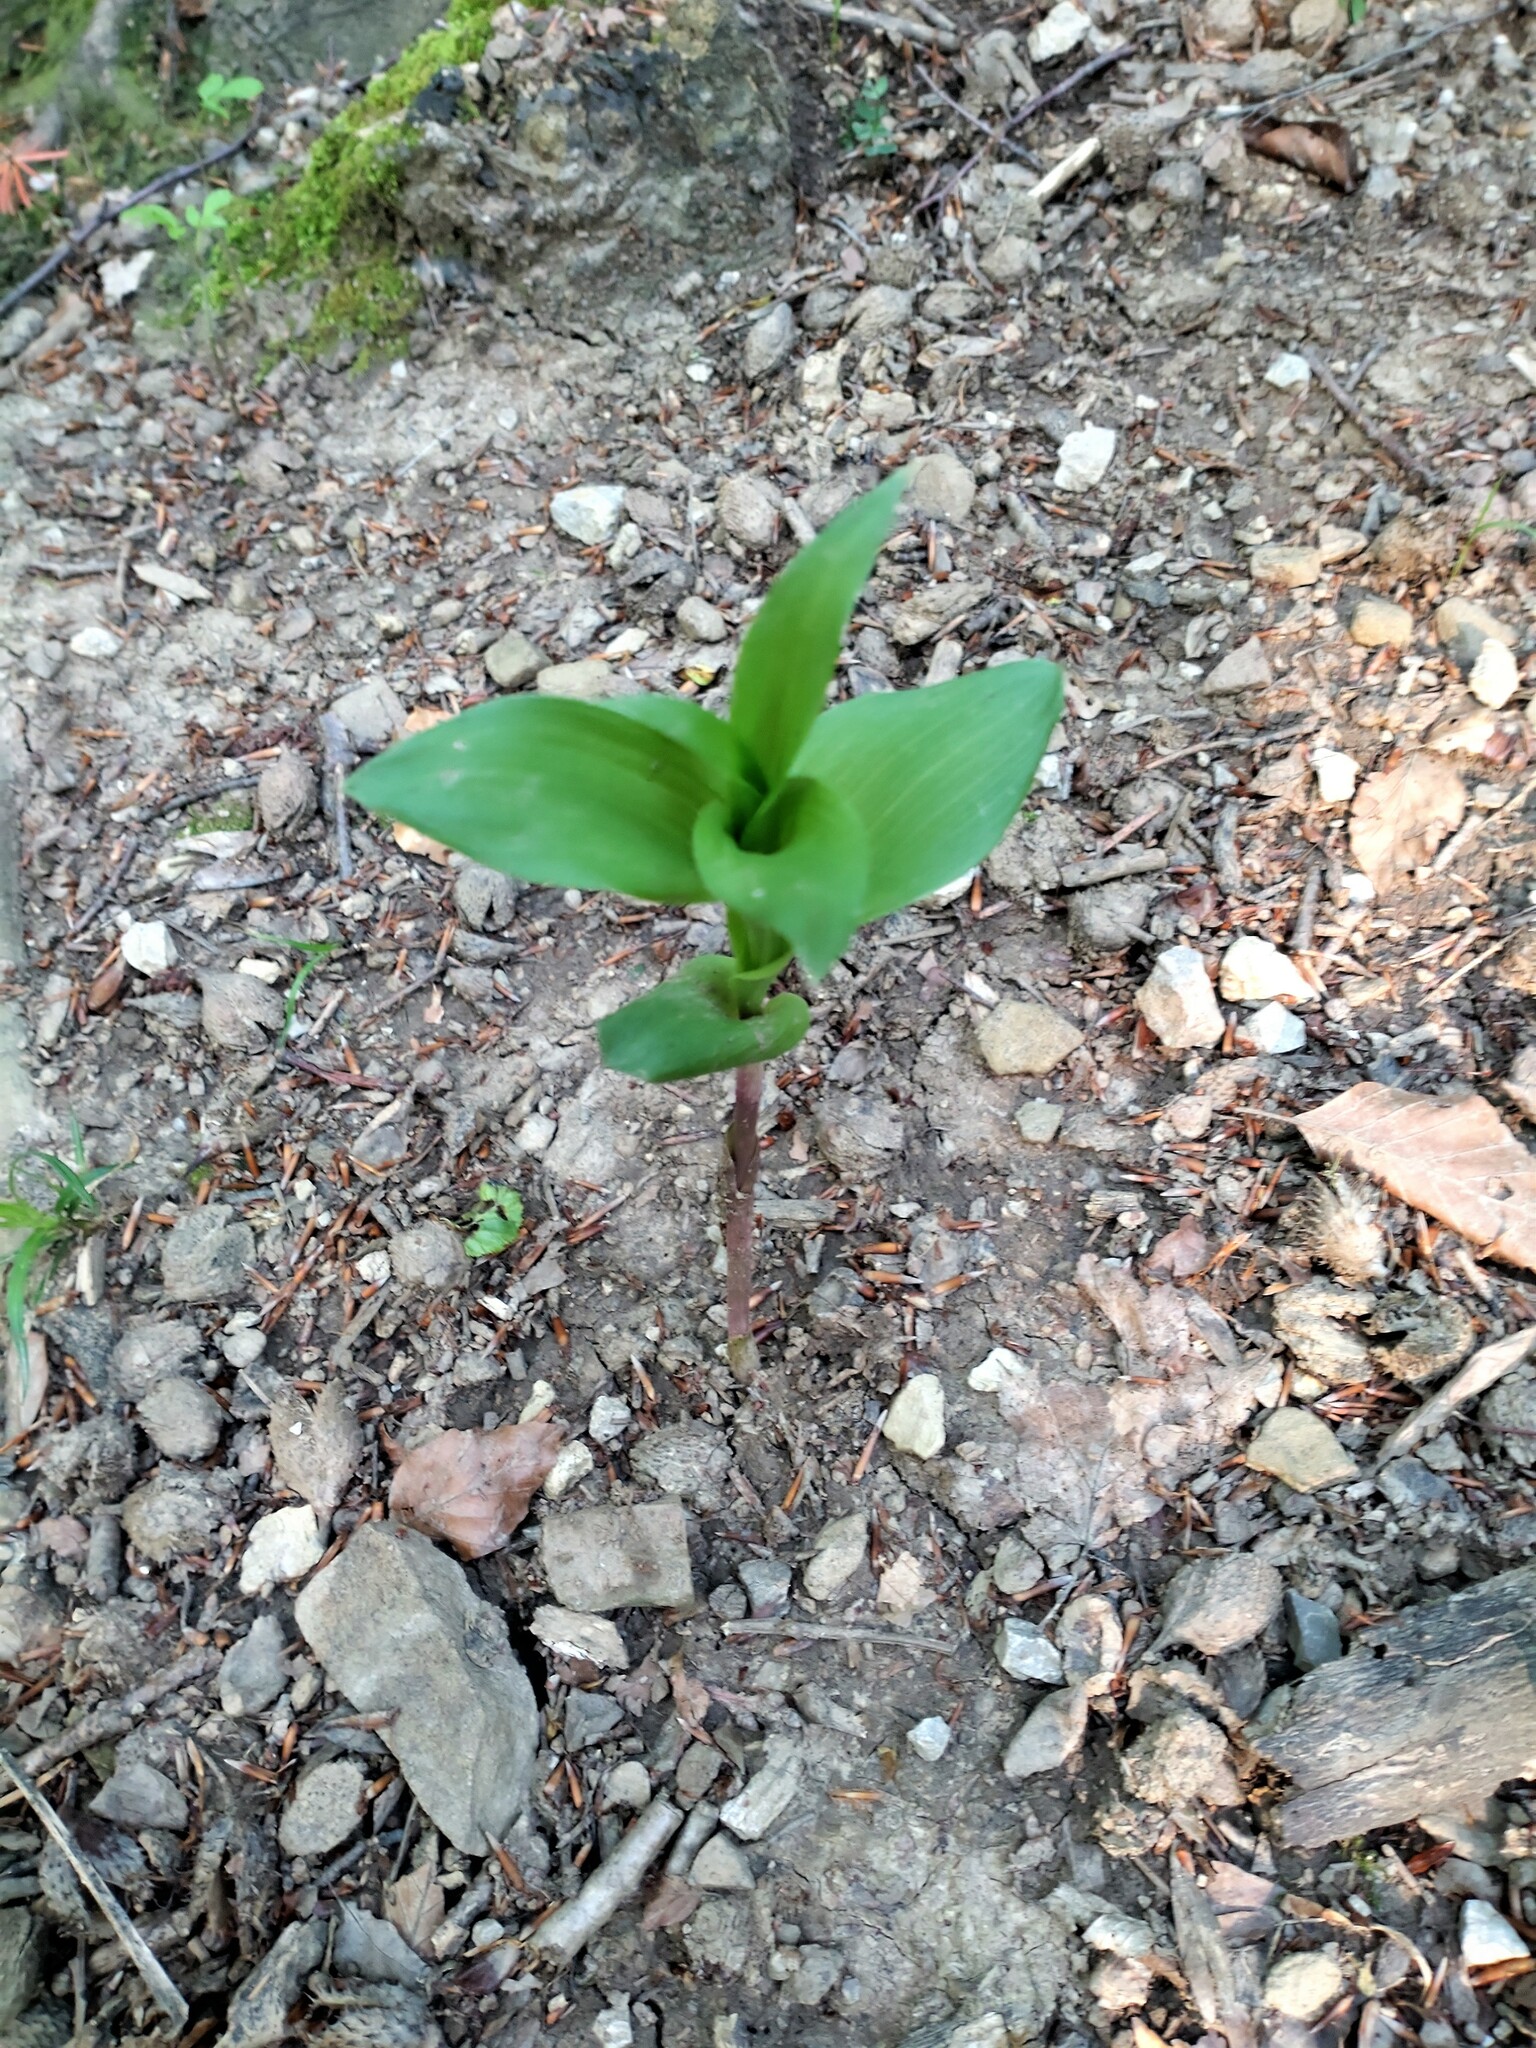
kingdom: Plantae
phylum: Tracheophyta
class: Liliopsida
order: Asparagales
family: Orchidaceae
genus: Epipactis
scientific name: Epipactis helleborine
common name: Broad-leaved helleborine
